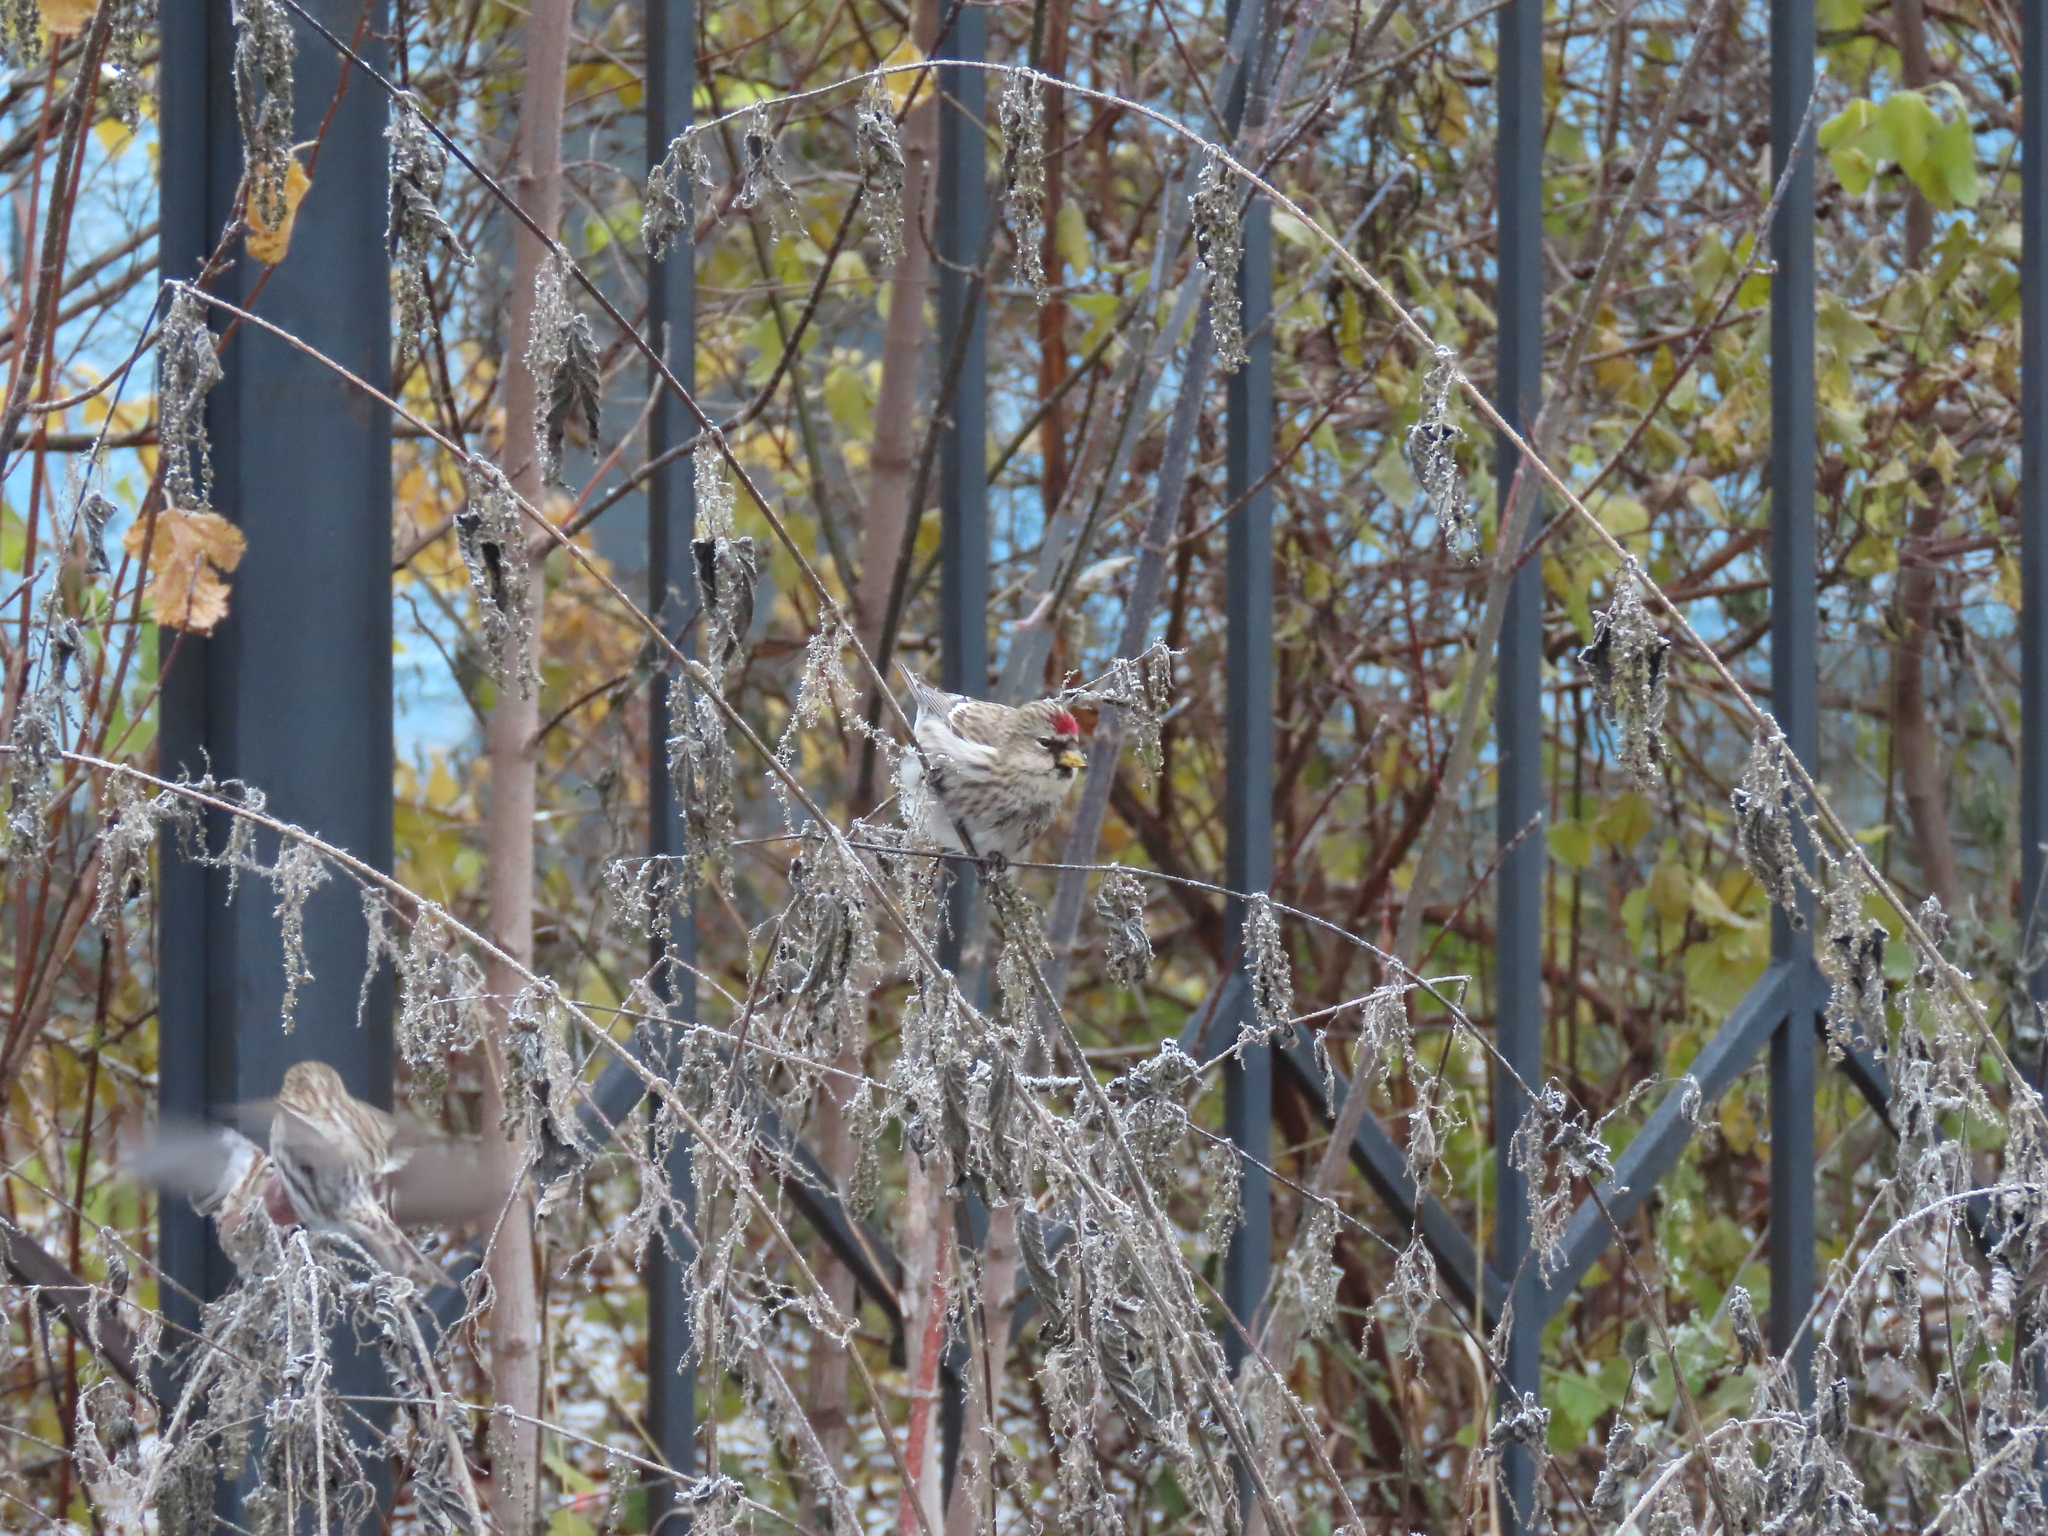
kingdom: Animalia
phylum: Chordata
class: Aves
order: Passeriformes
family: Fringillidae
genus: Acanthis
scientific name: Acanthis flammea
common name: Common redpoll
